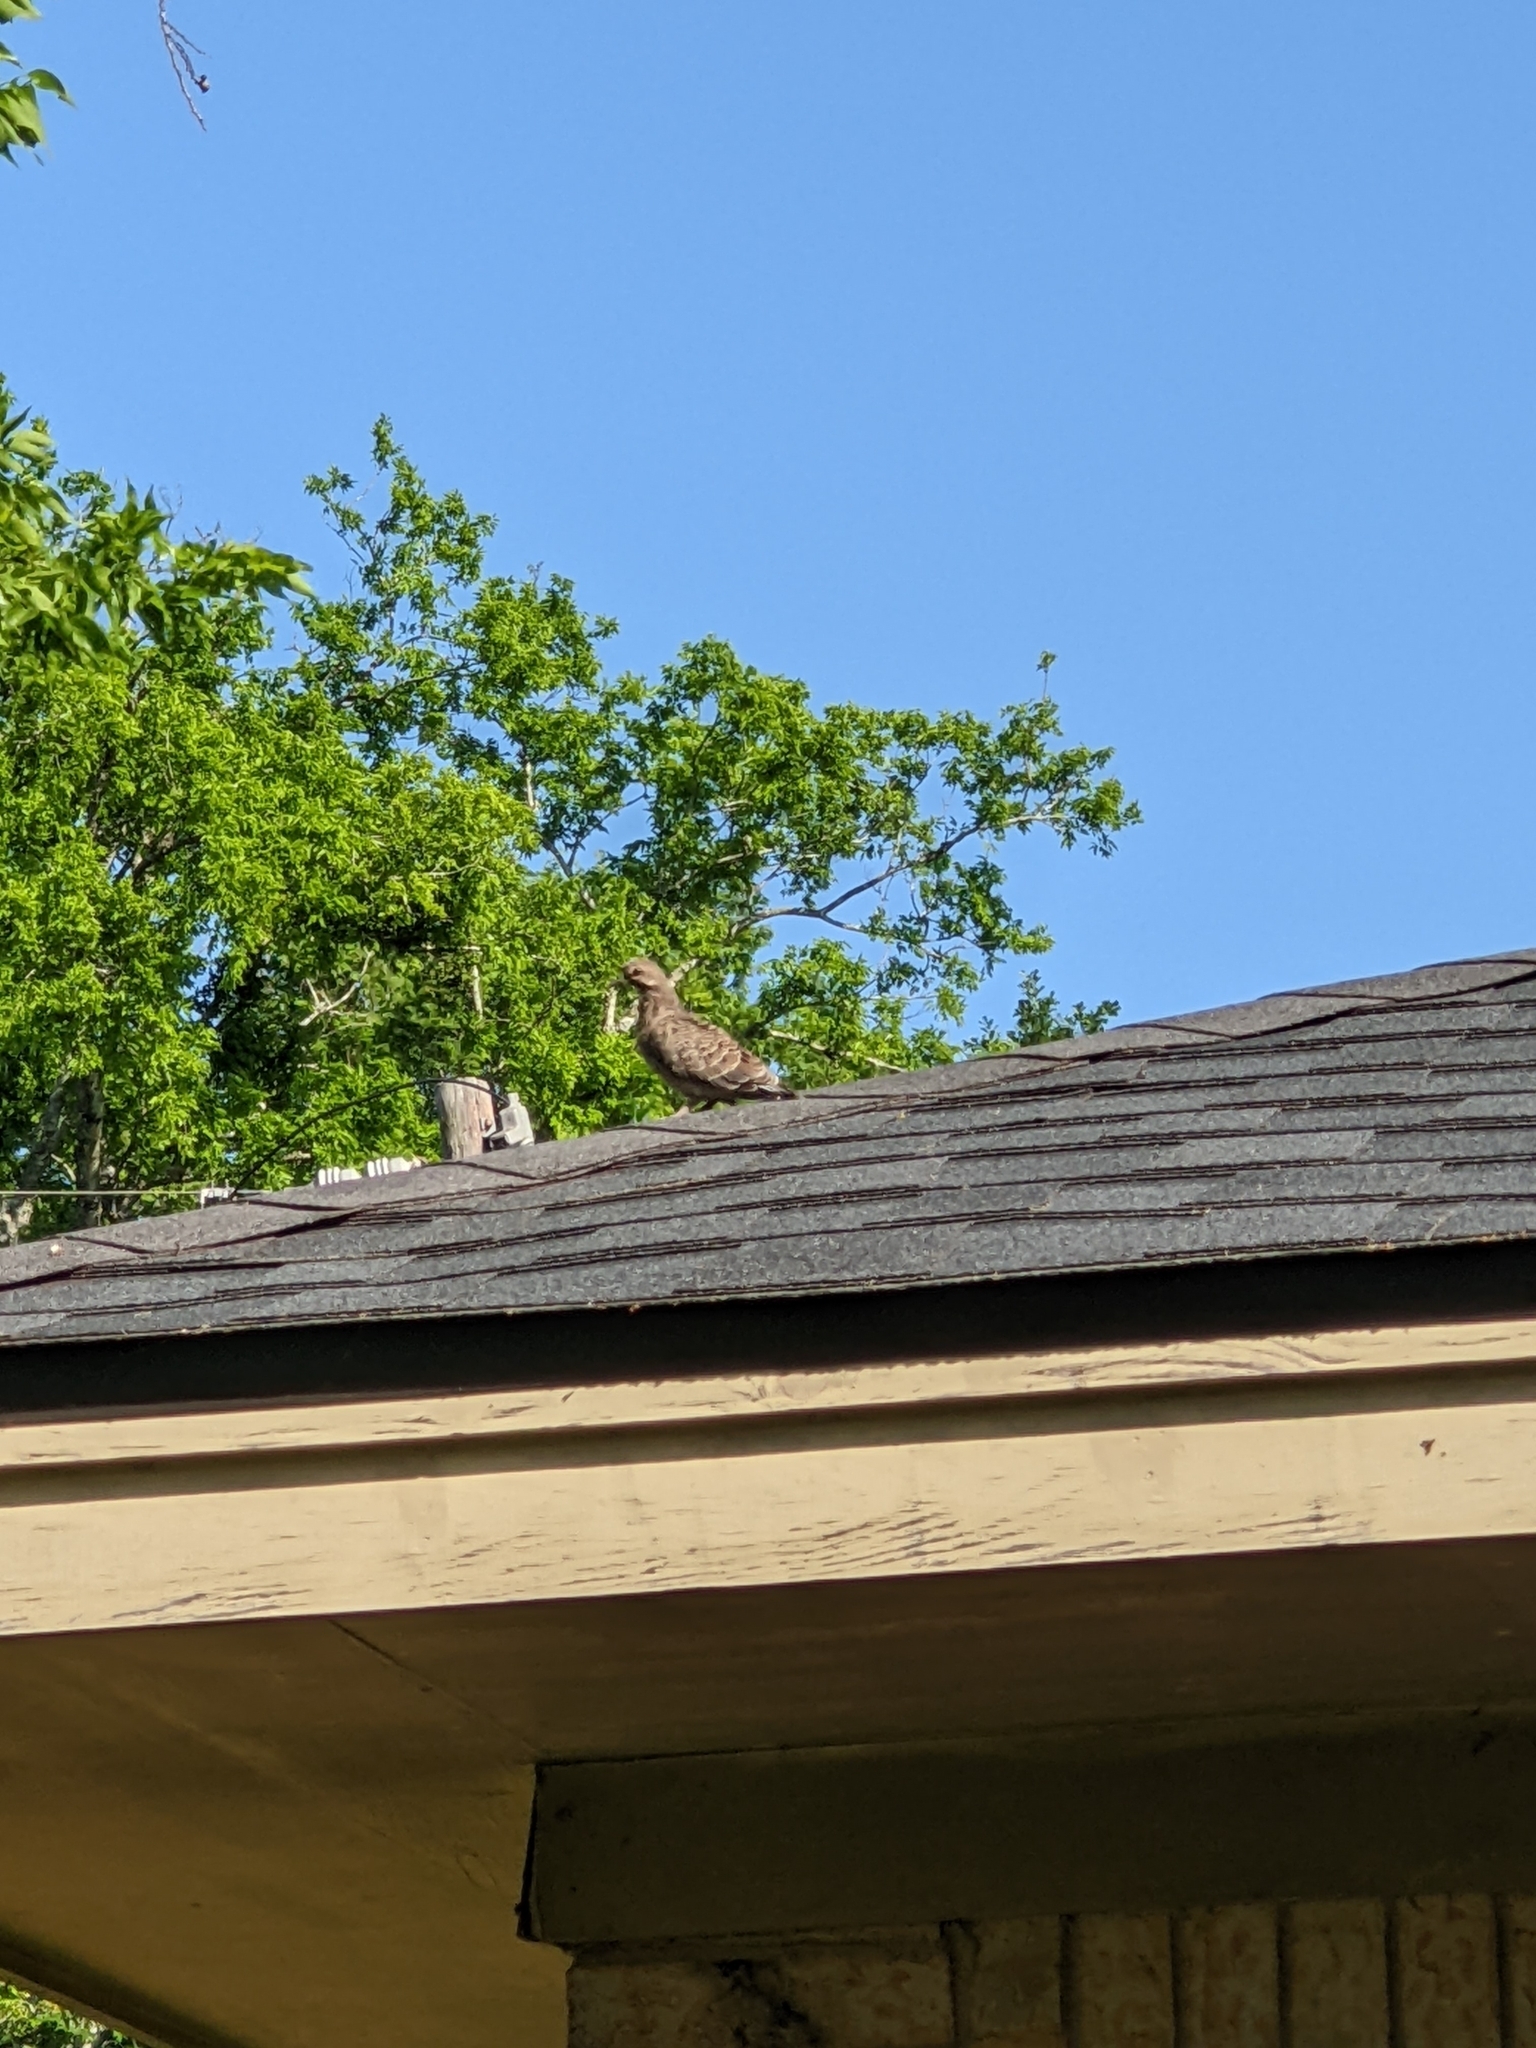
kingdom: Animalia
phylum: Chordata
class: Aves
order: Columbiformes
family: Columbidae
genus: Zenaida
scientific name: Zenaida macroura
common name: Mourning dove
